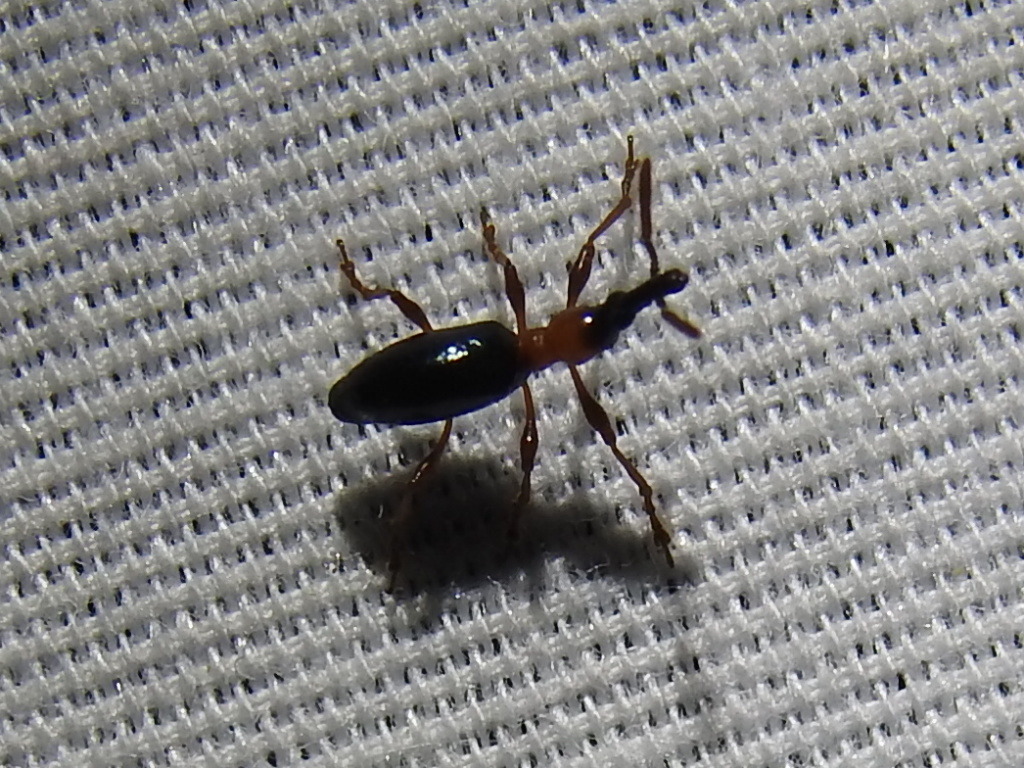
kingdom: Animalia
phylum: Arthropoda
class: Insecta
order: Coleoptera
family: Brentidae
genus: Cylas
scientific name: Cylas formicarius
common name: Sweetpotato weevil
